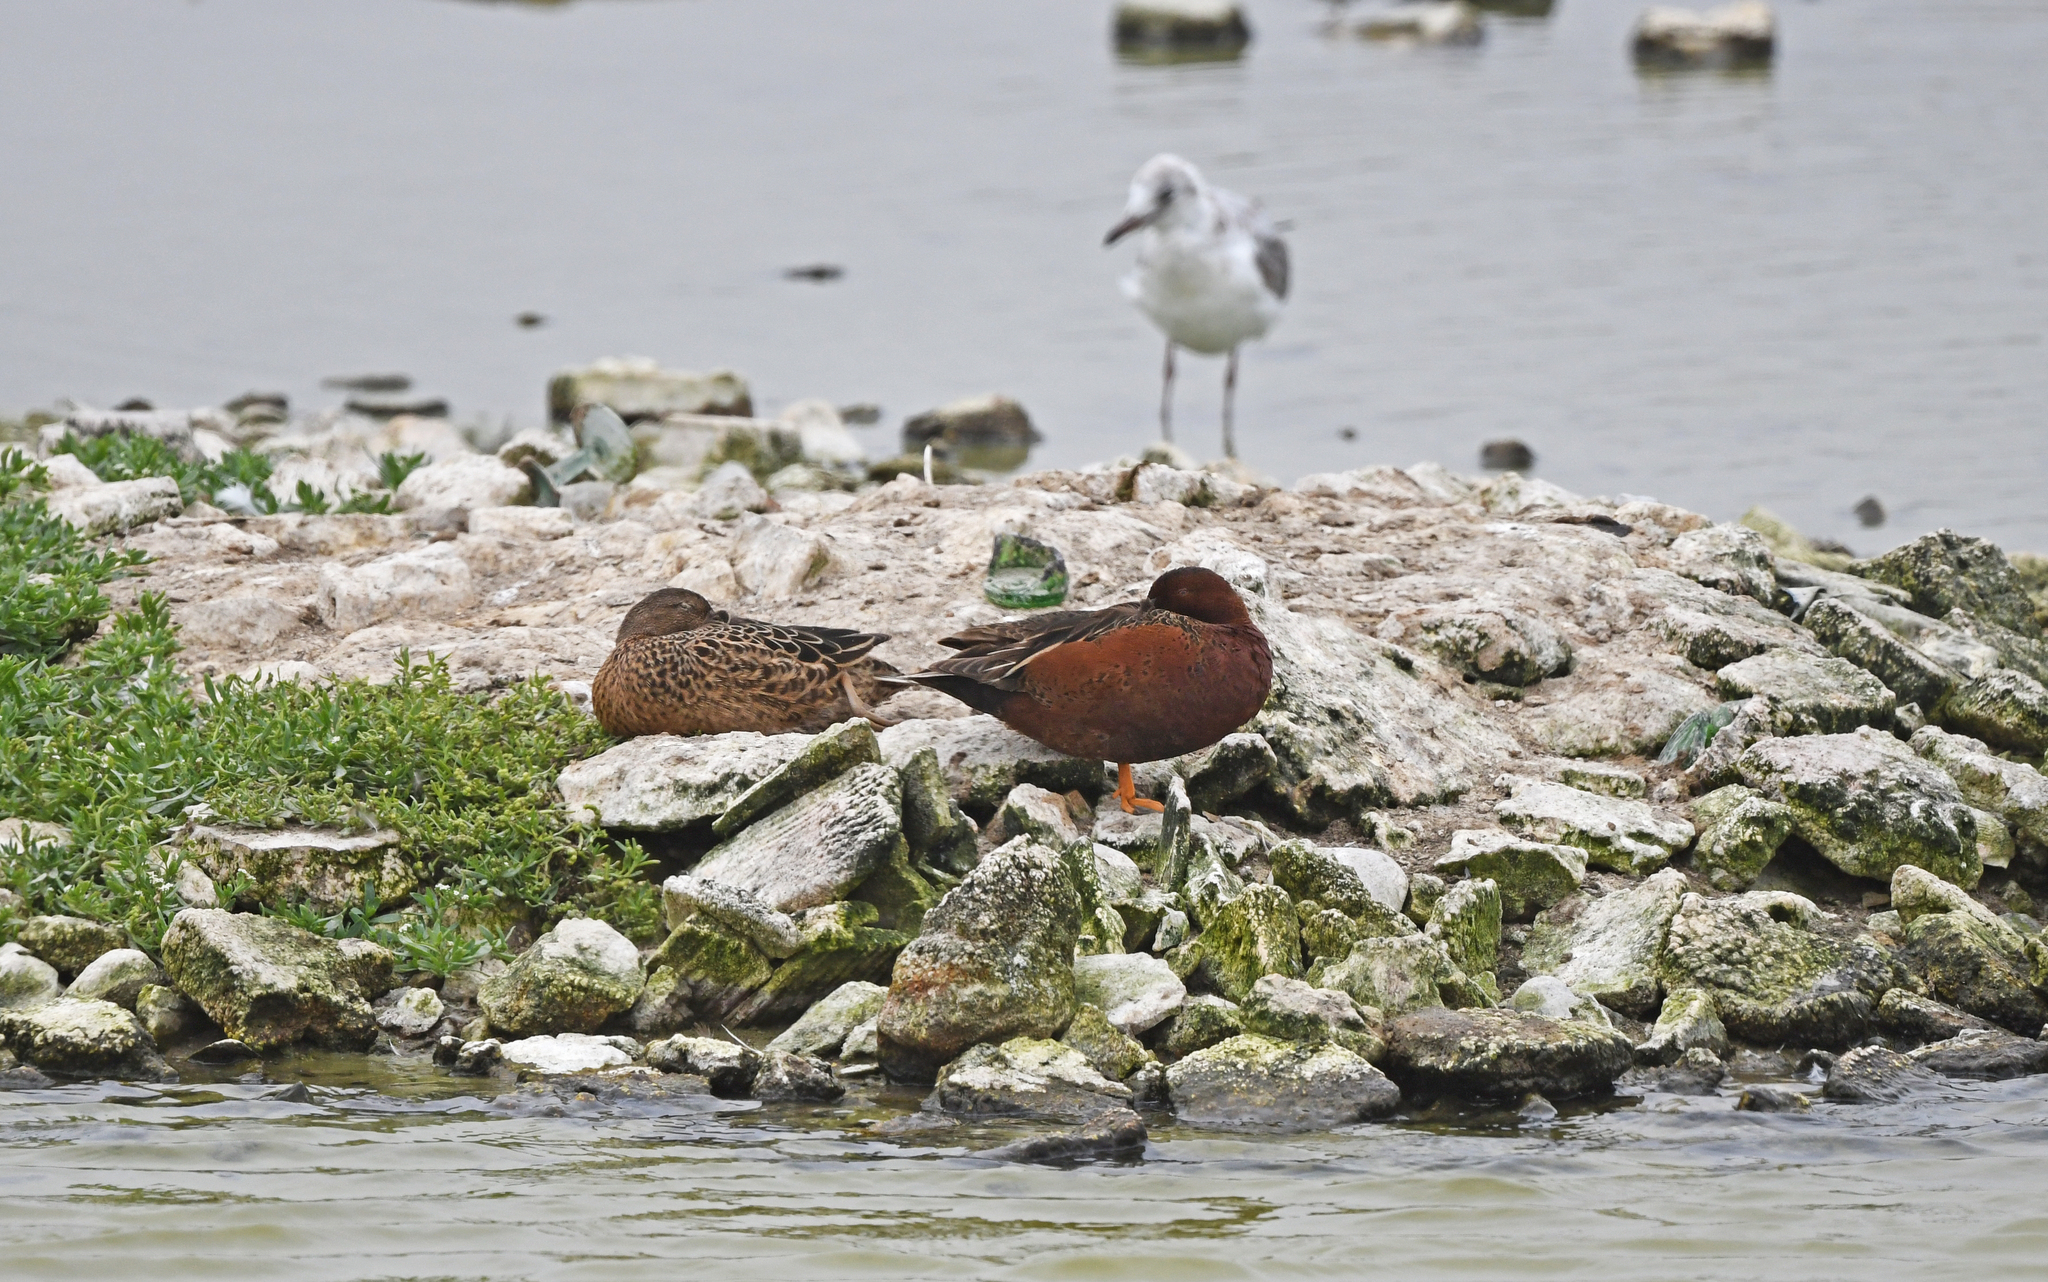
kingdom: Animalia
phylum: Chordata
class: Aves
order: Anseriformes
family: Anatidae
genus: Spatula
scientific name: Spatula cyanoptera
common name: Cinnamon teal
